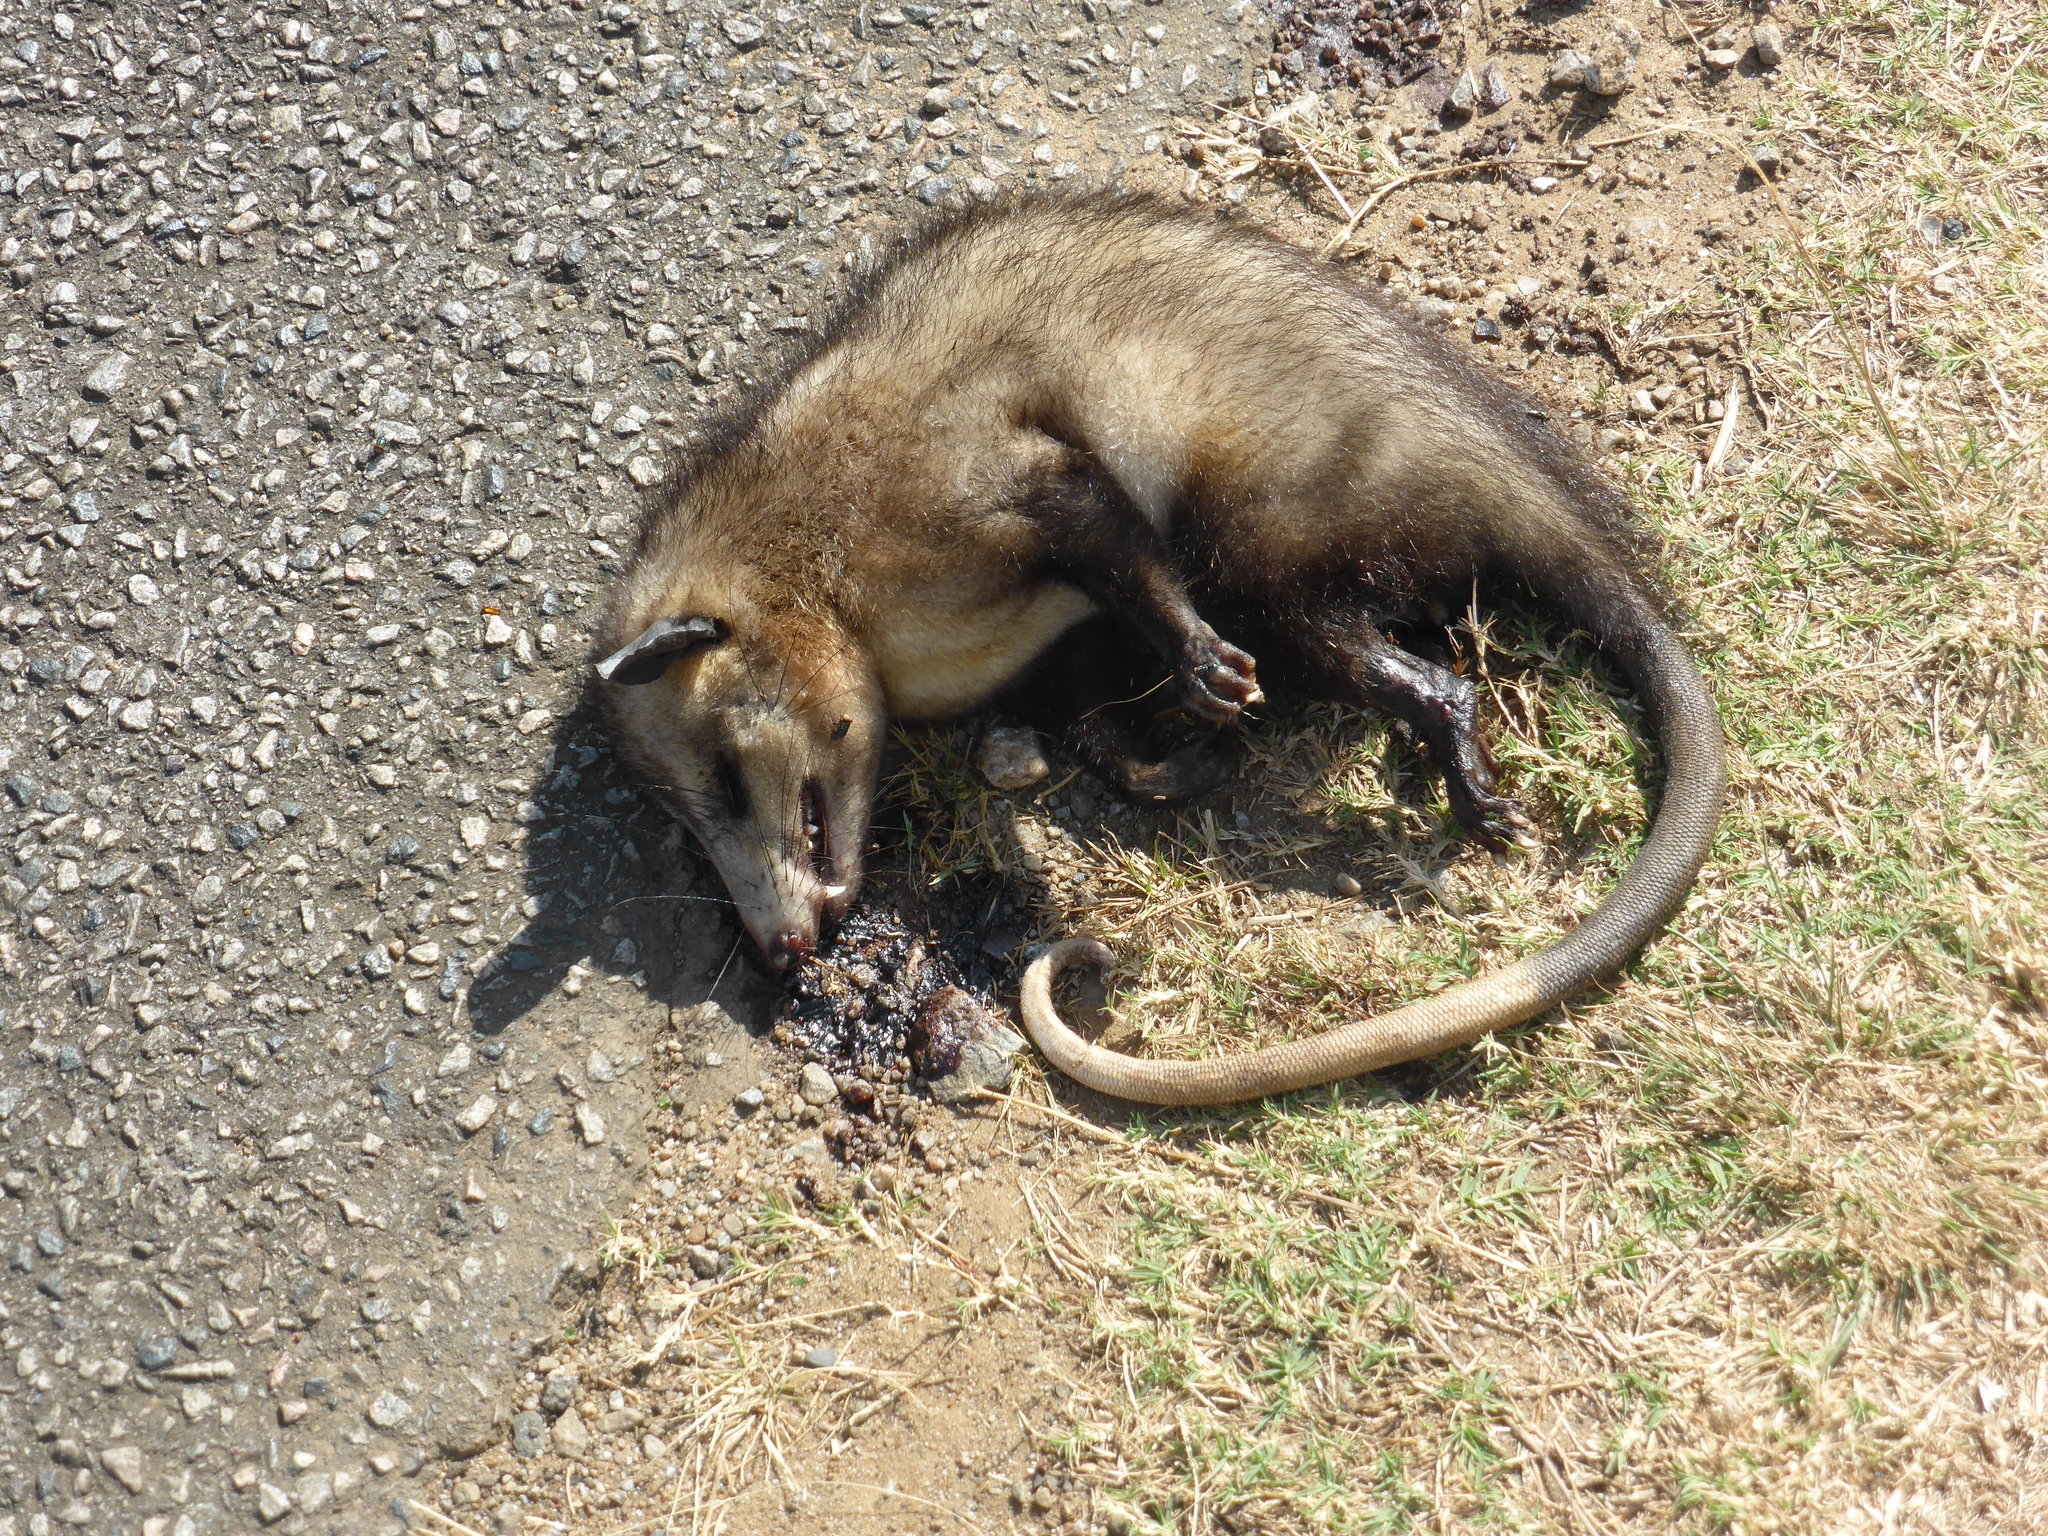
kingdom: Animalia
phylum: Chordata
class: Mammalia
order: Didelphimorphia
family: Didelphidae
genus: Didelphis
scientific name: Didelphis marsupialis
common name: Common opossum
